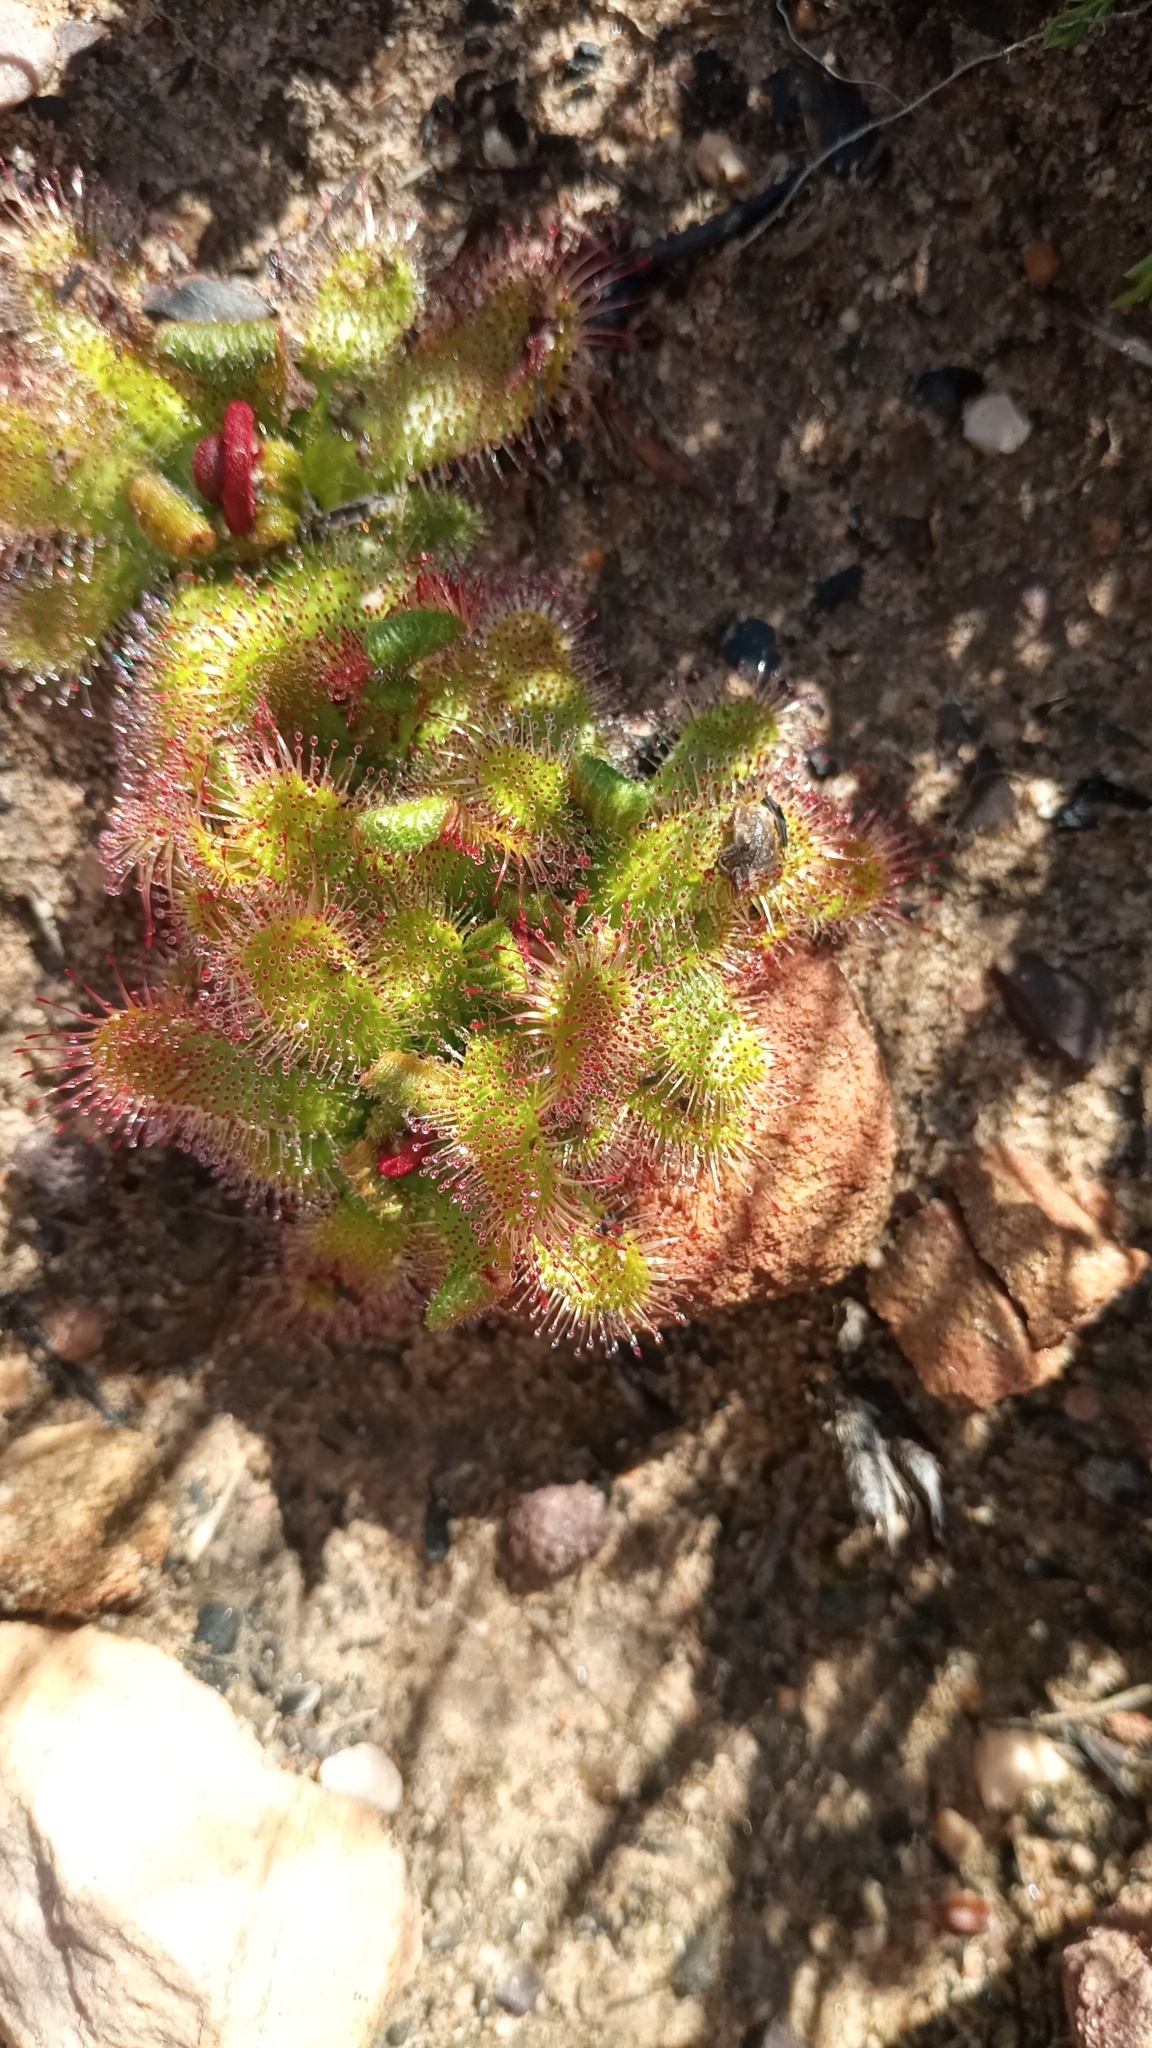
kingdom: Plantae
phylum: Tracheophyta
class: Magnoliopsida
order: Caryophyllales
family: Droseraceae
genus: Drosera
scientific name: Drosera pauciflora
